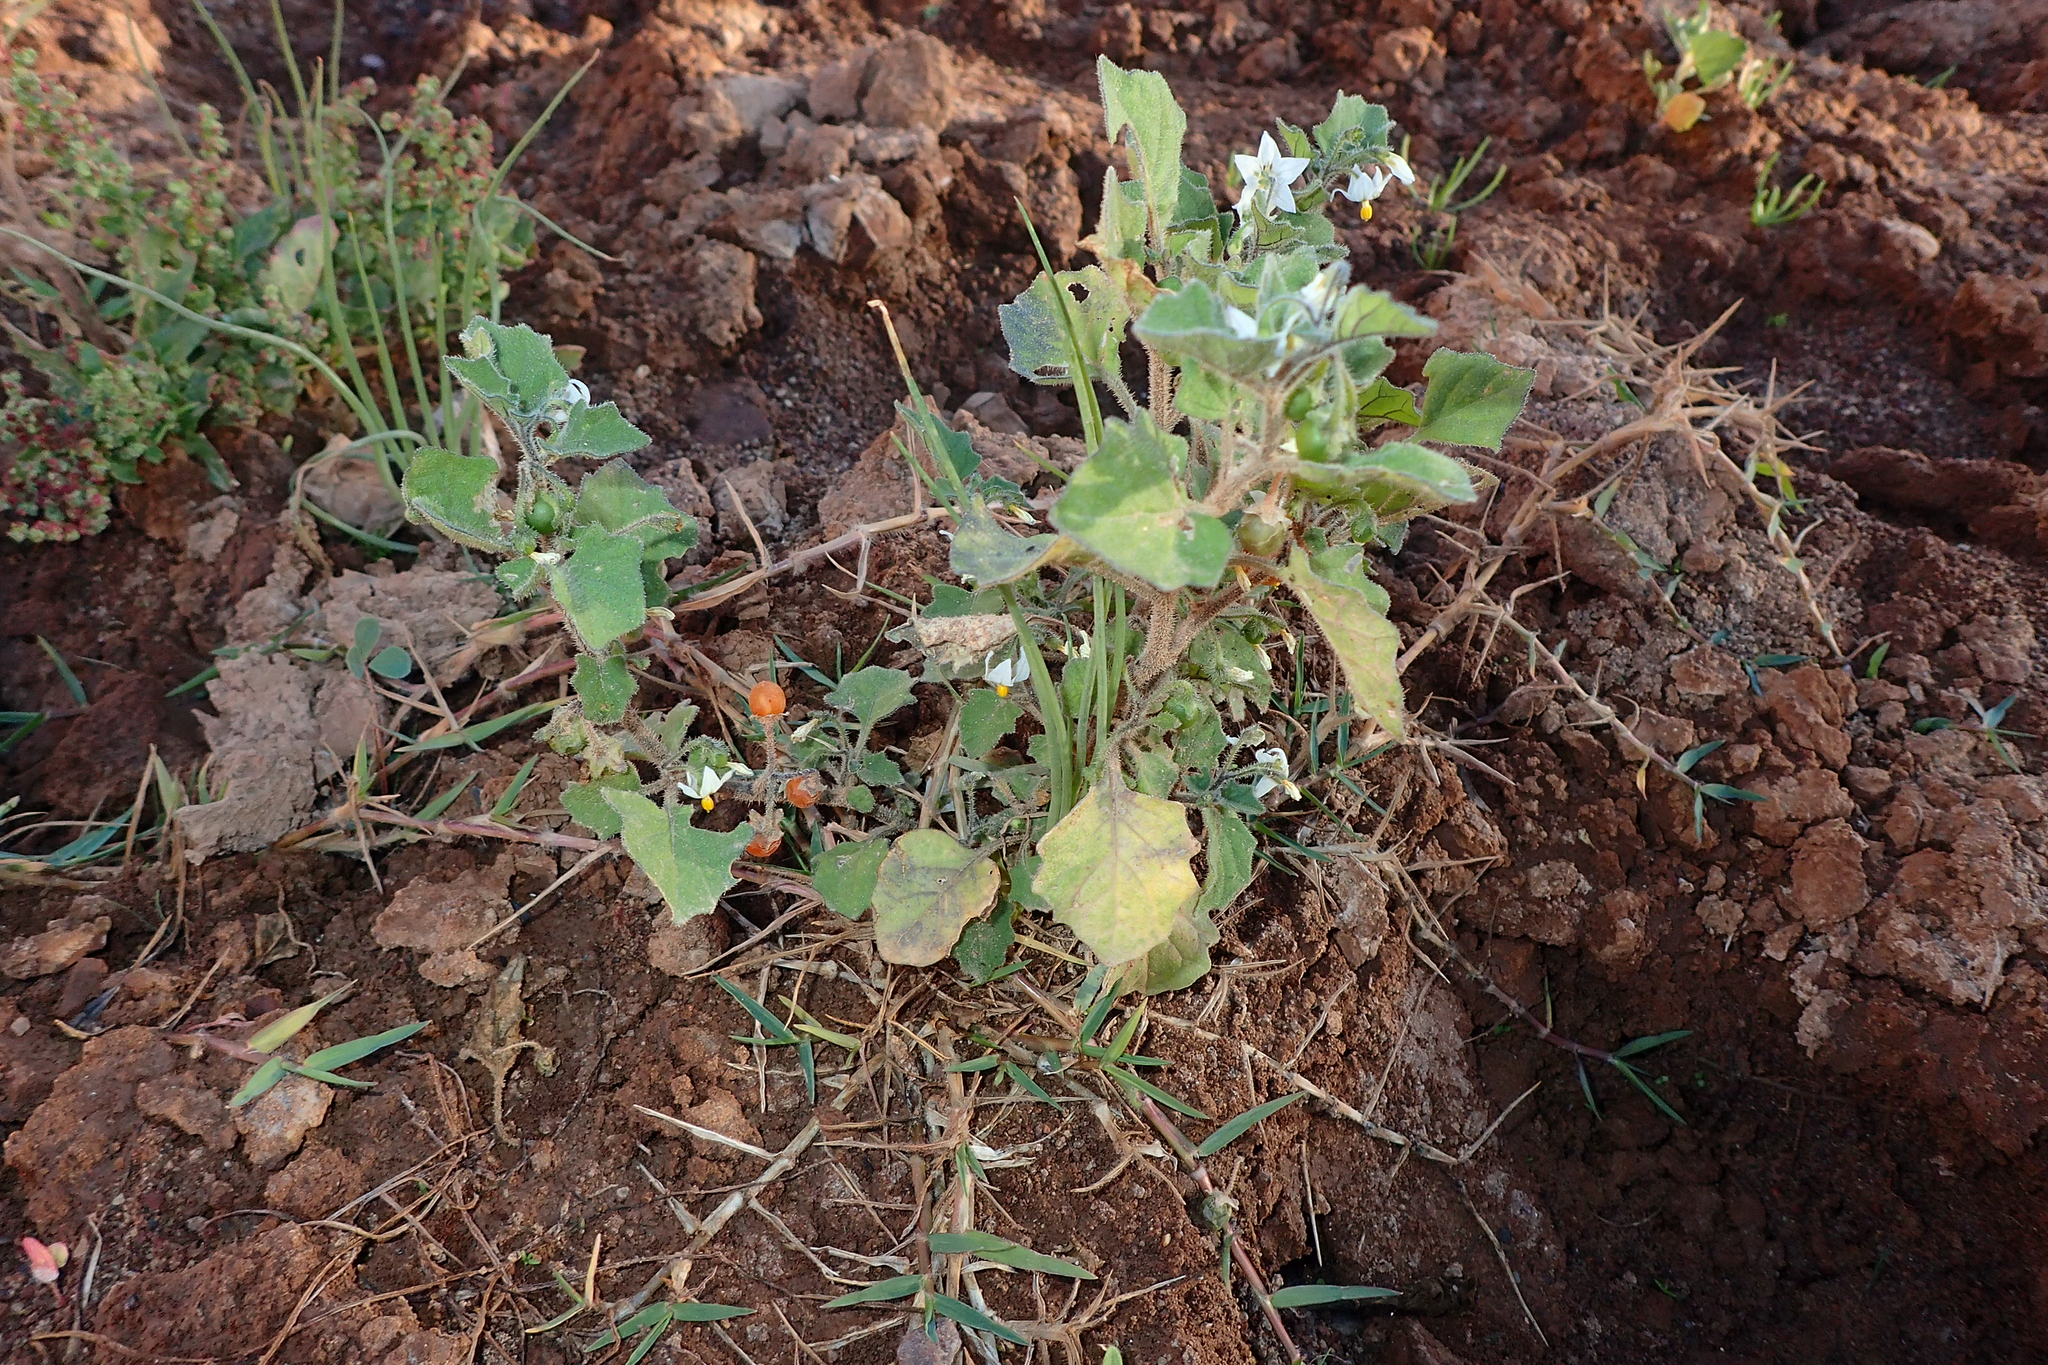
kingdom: Plantae
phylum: Tracheophyta
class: Magnoliopsida
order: Solanales
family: Solanaceae
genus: Solanum
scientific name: Solanum villosum
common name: Red nightshade
